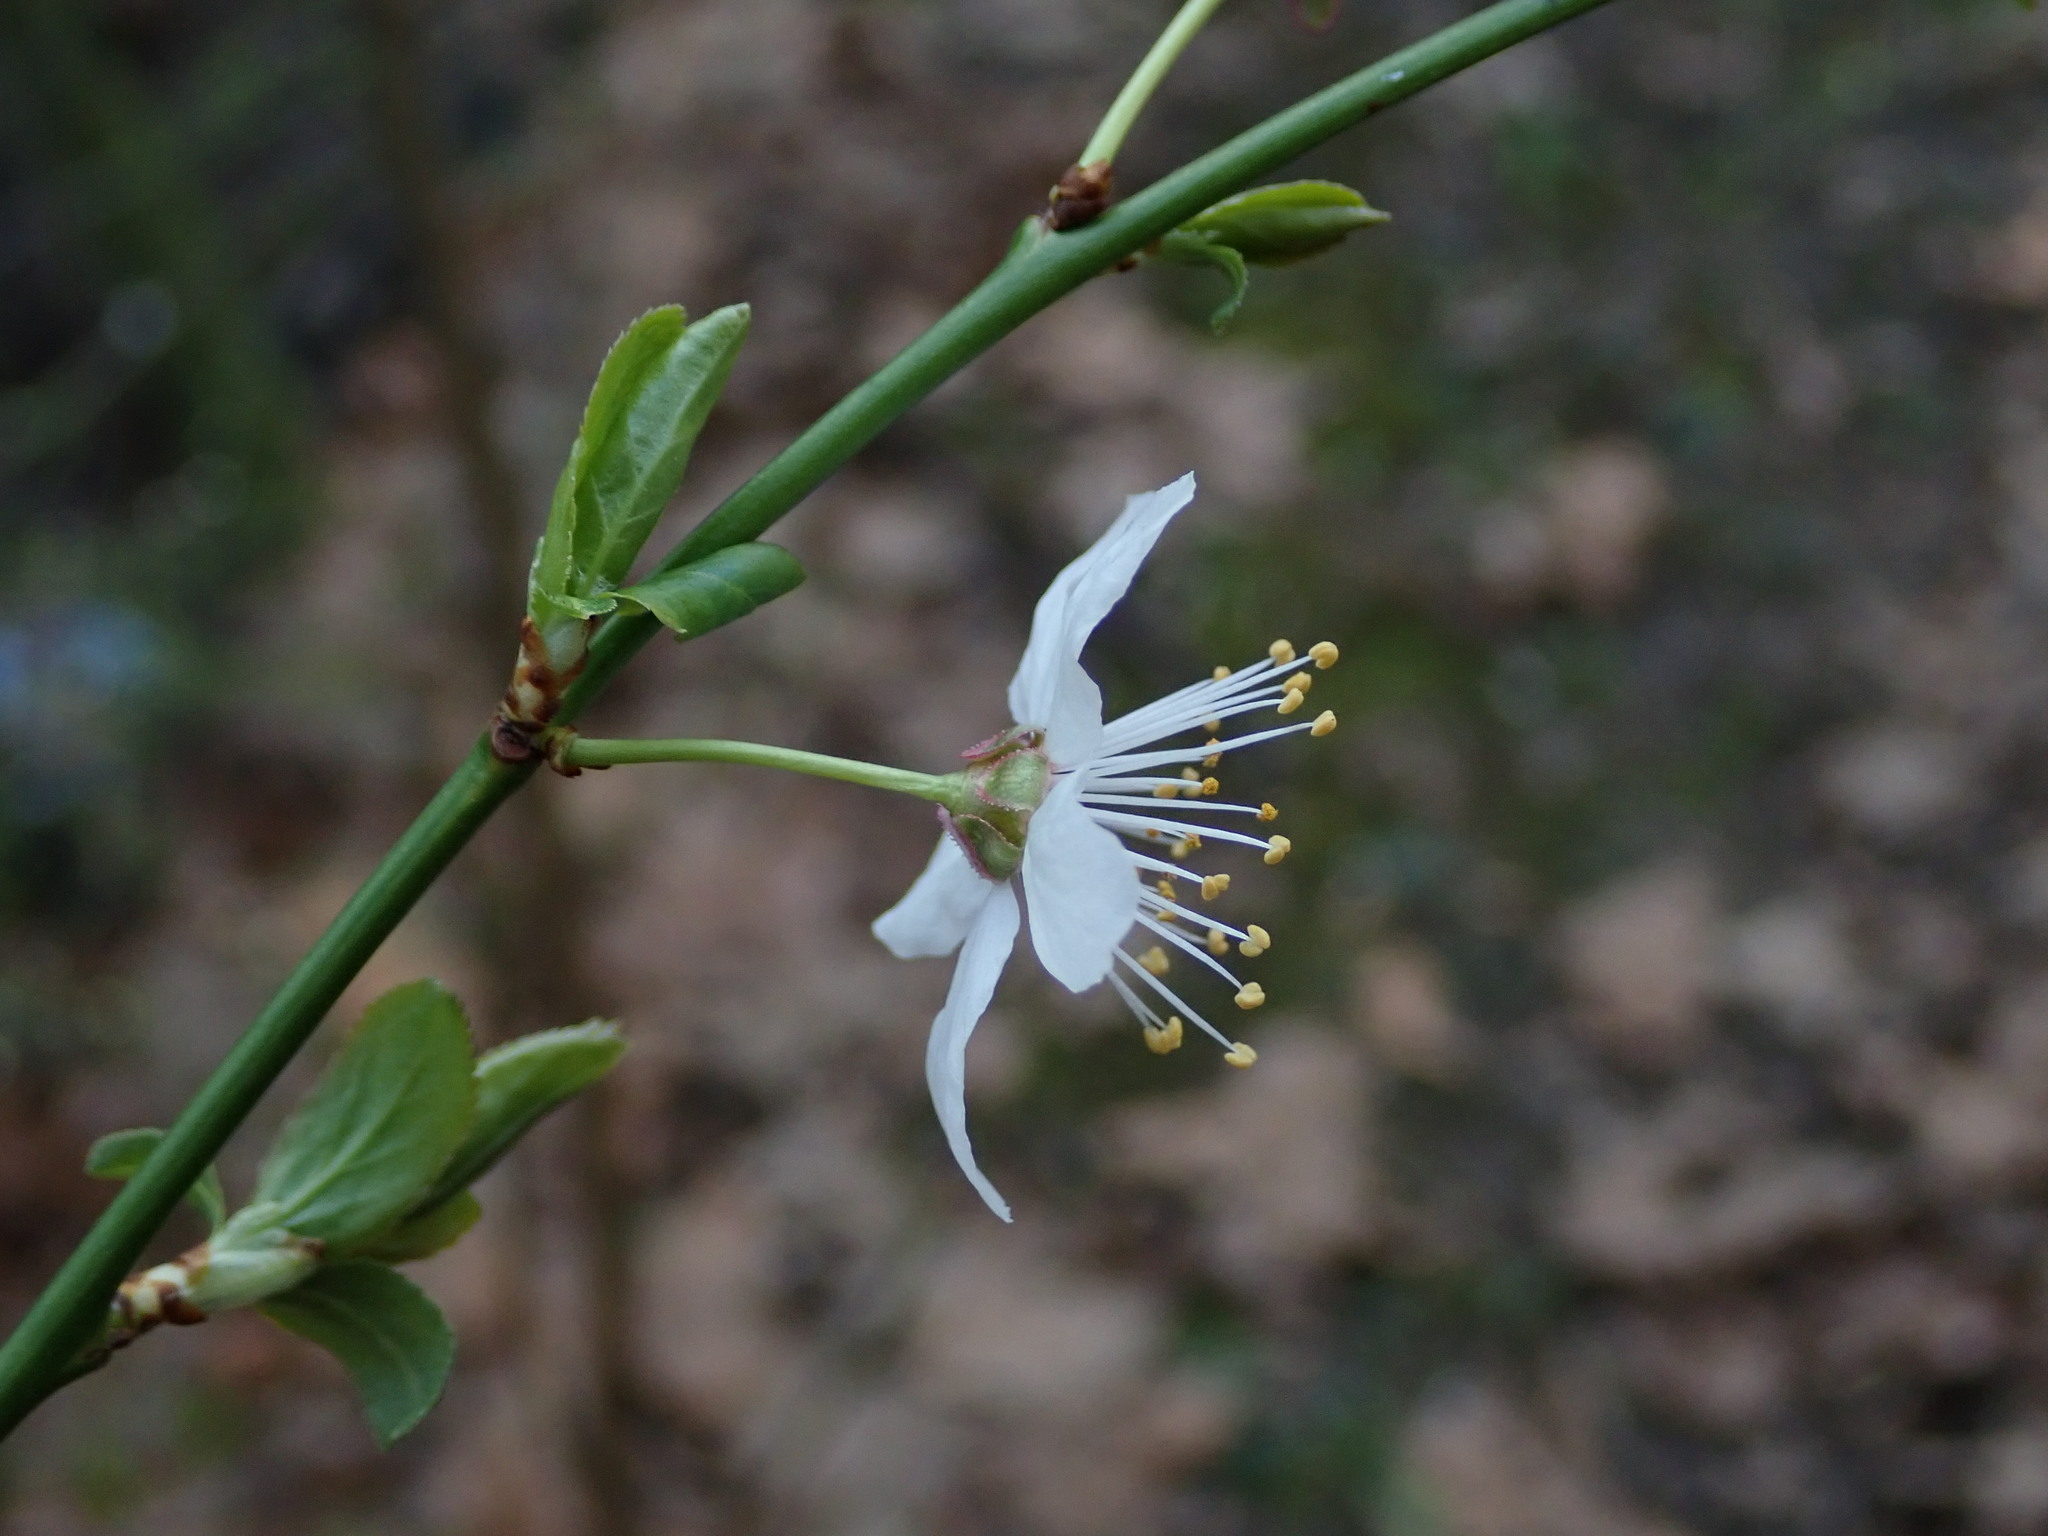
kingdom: Plantae
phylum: Tracheophyta
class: Magnoliopsida
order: Rosales
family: Rosaceae
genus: Prunus
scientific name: Prunus cerasifera
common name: Cherry plum
